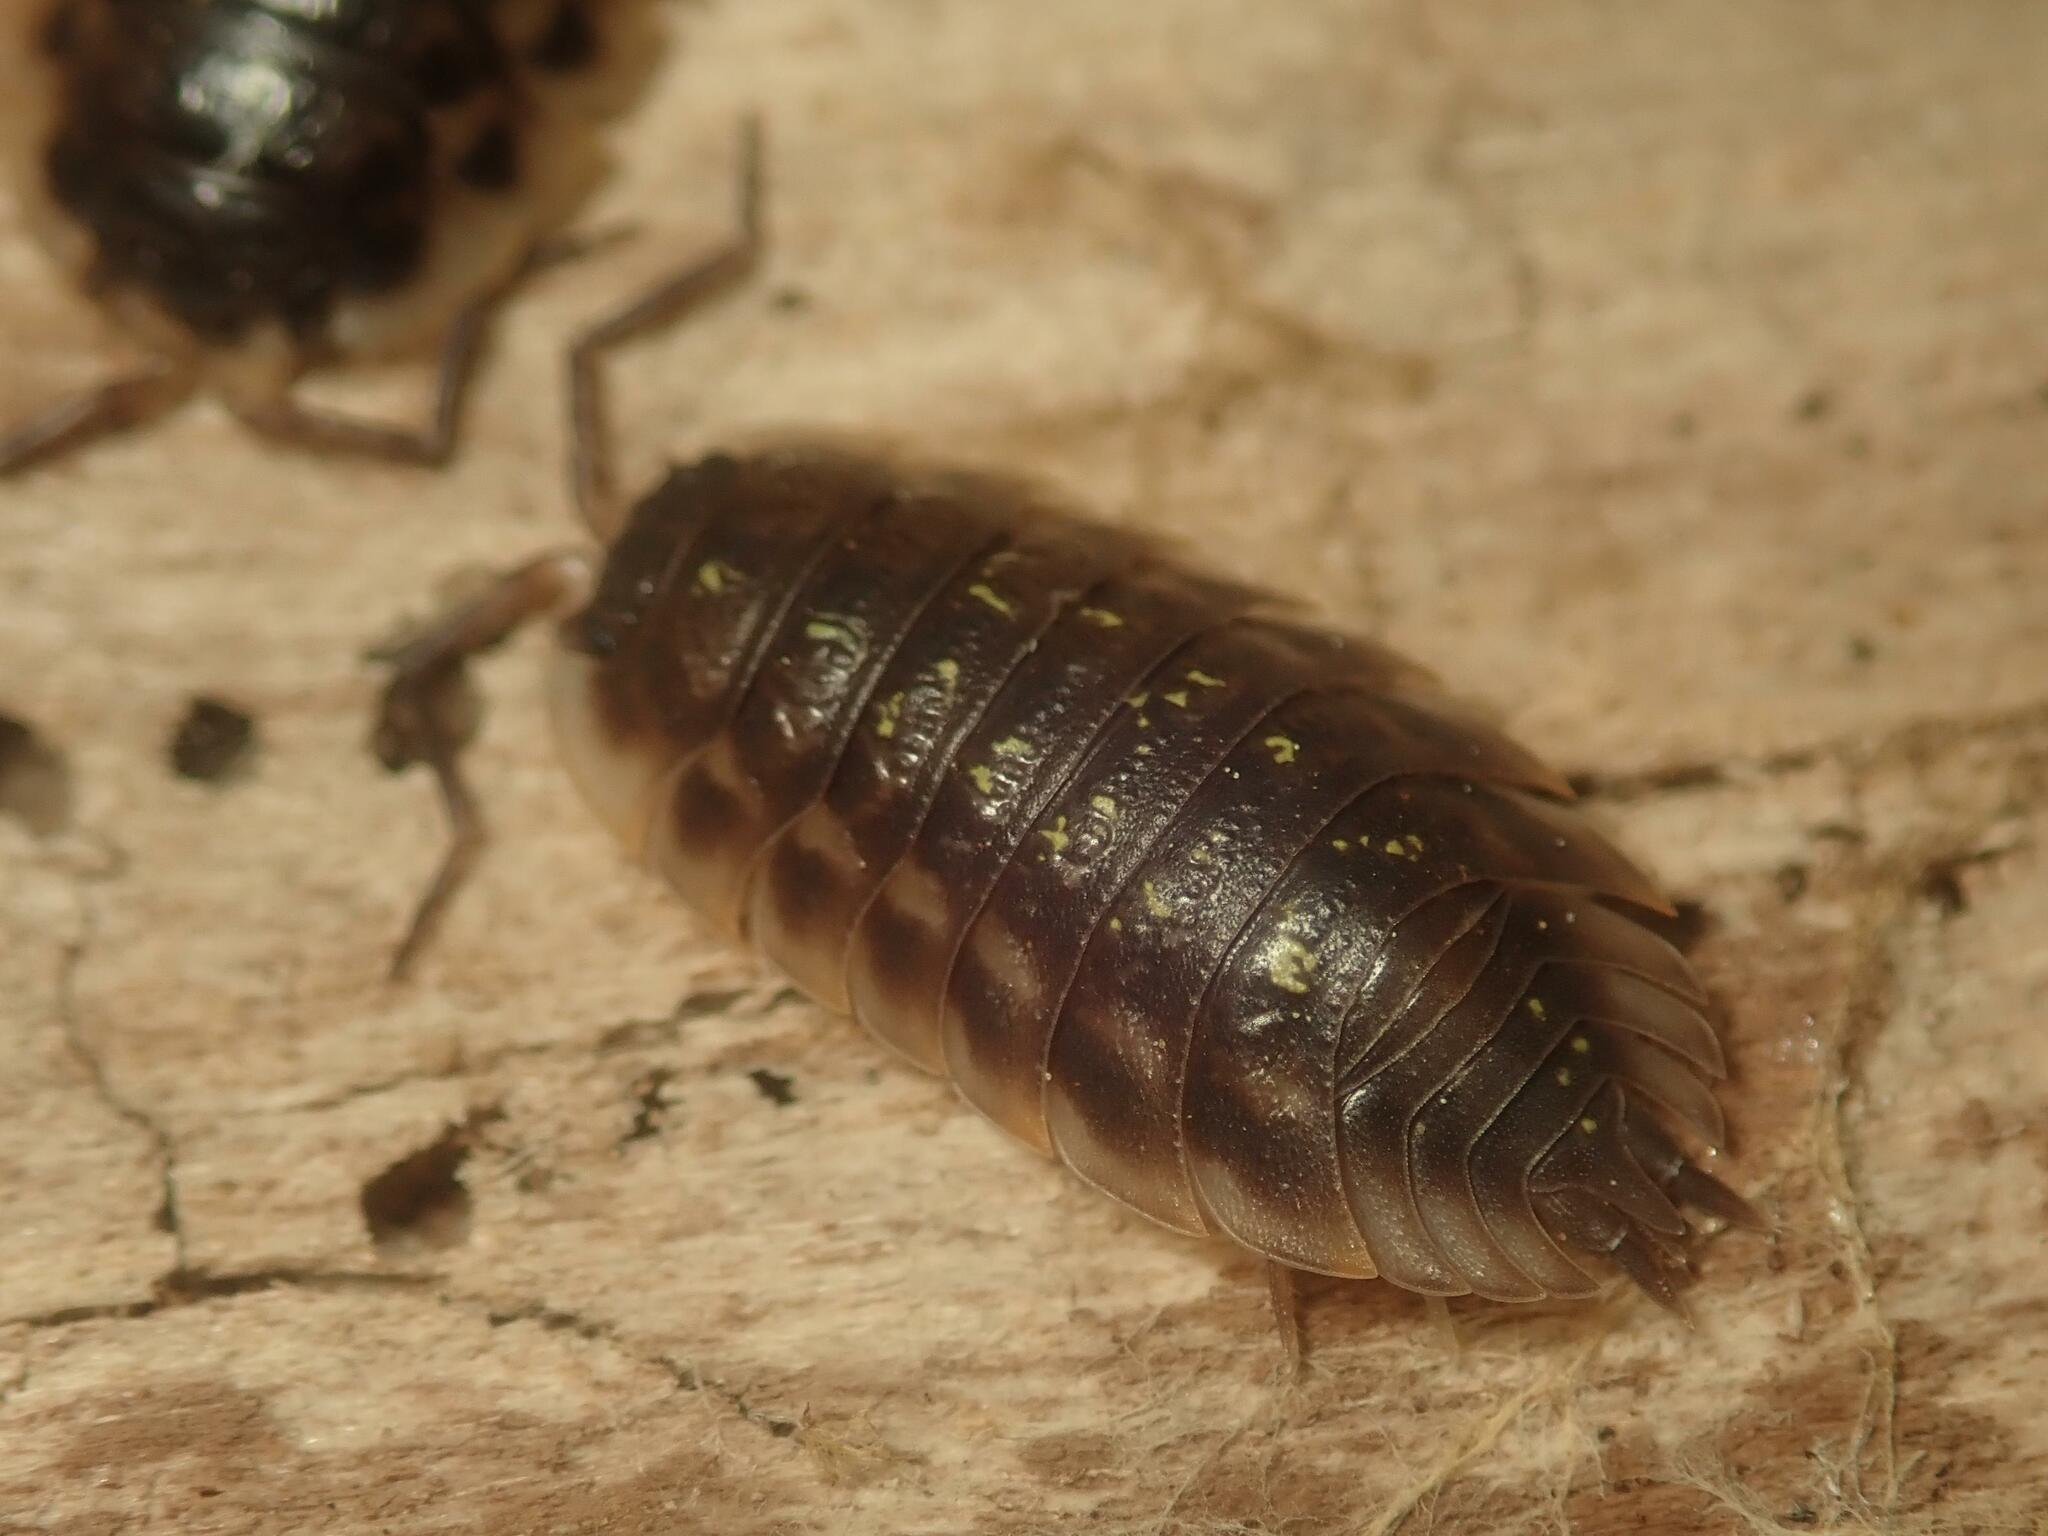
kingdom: Animalia
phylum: Arthropoda
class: Malacostraca
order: Isopoda
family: Oniscidae
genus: Oniscus
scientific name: Oniscus asellus
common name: Common shiny woodlouse
